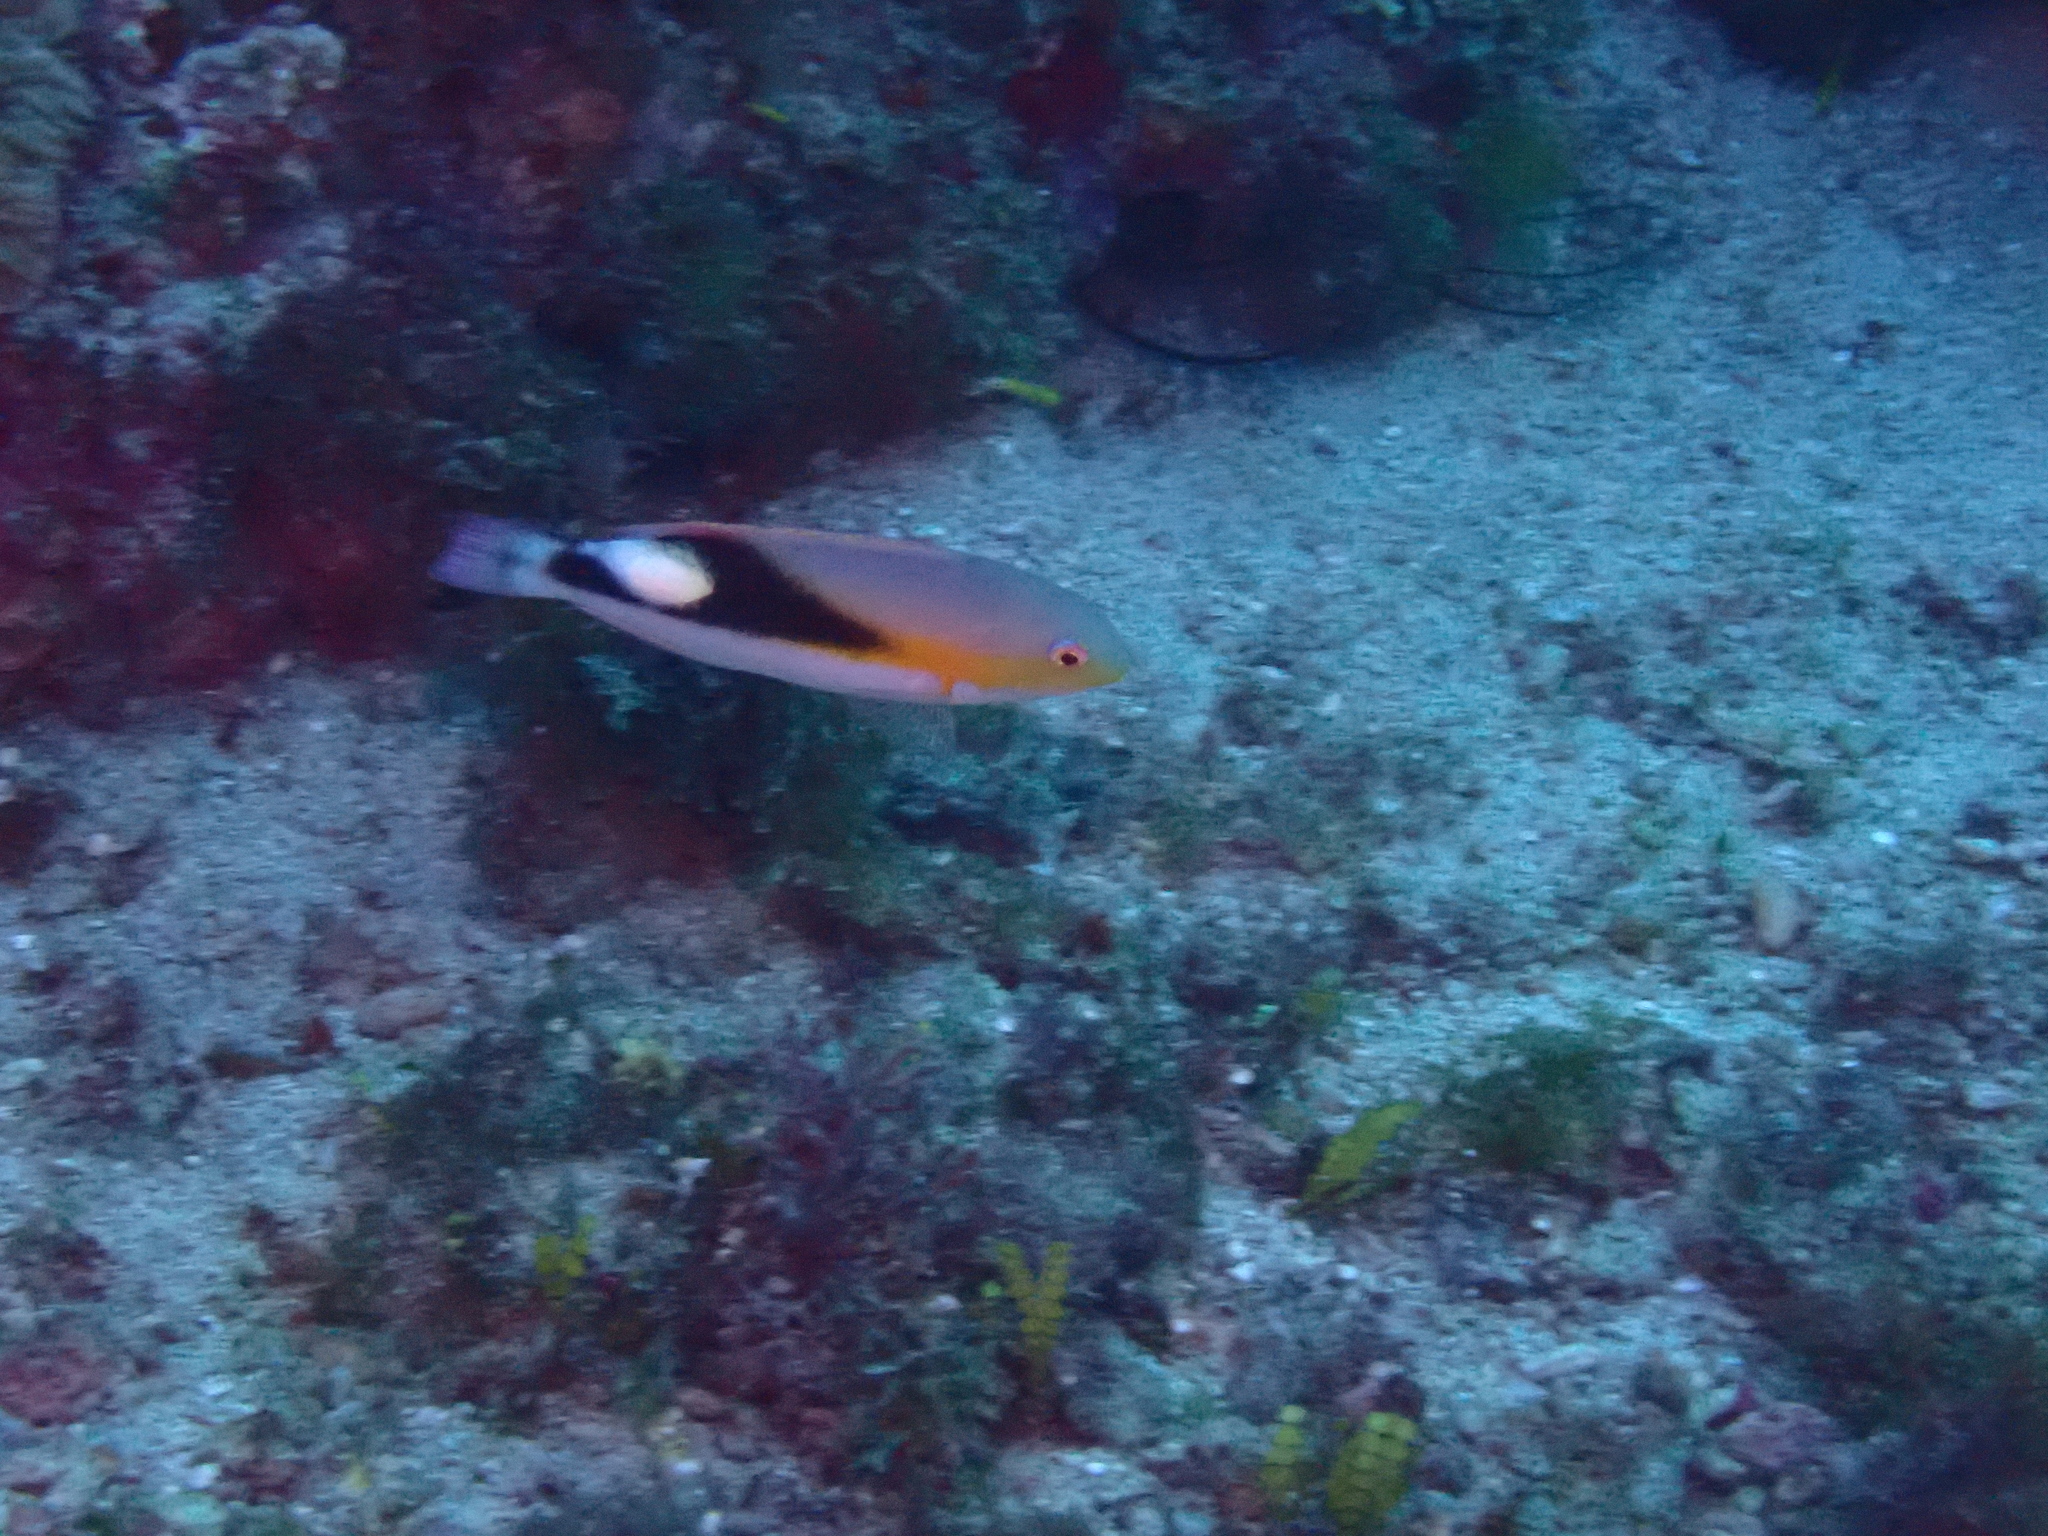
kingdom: Animalia
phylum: Chordata
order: Perciformes
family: Labridae
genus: Choerodon
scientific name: Choerodon jordani
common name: Jordan's tuskfish
